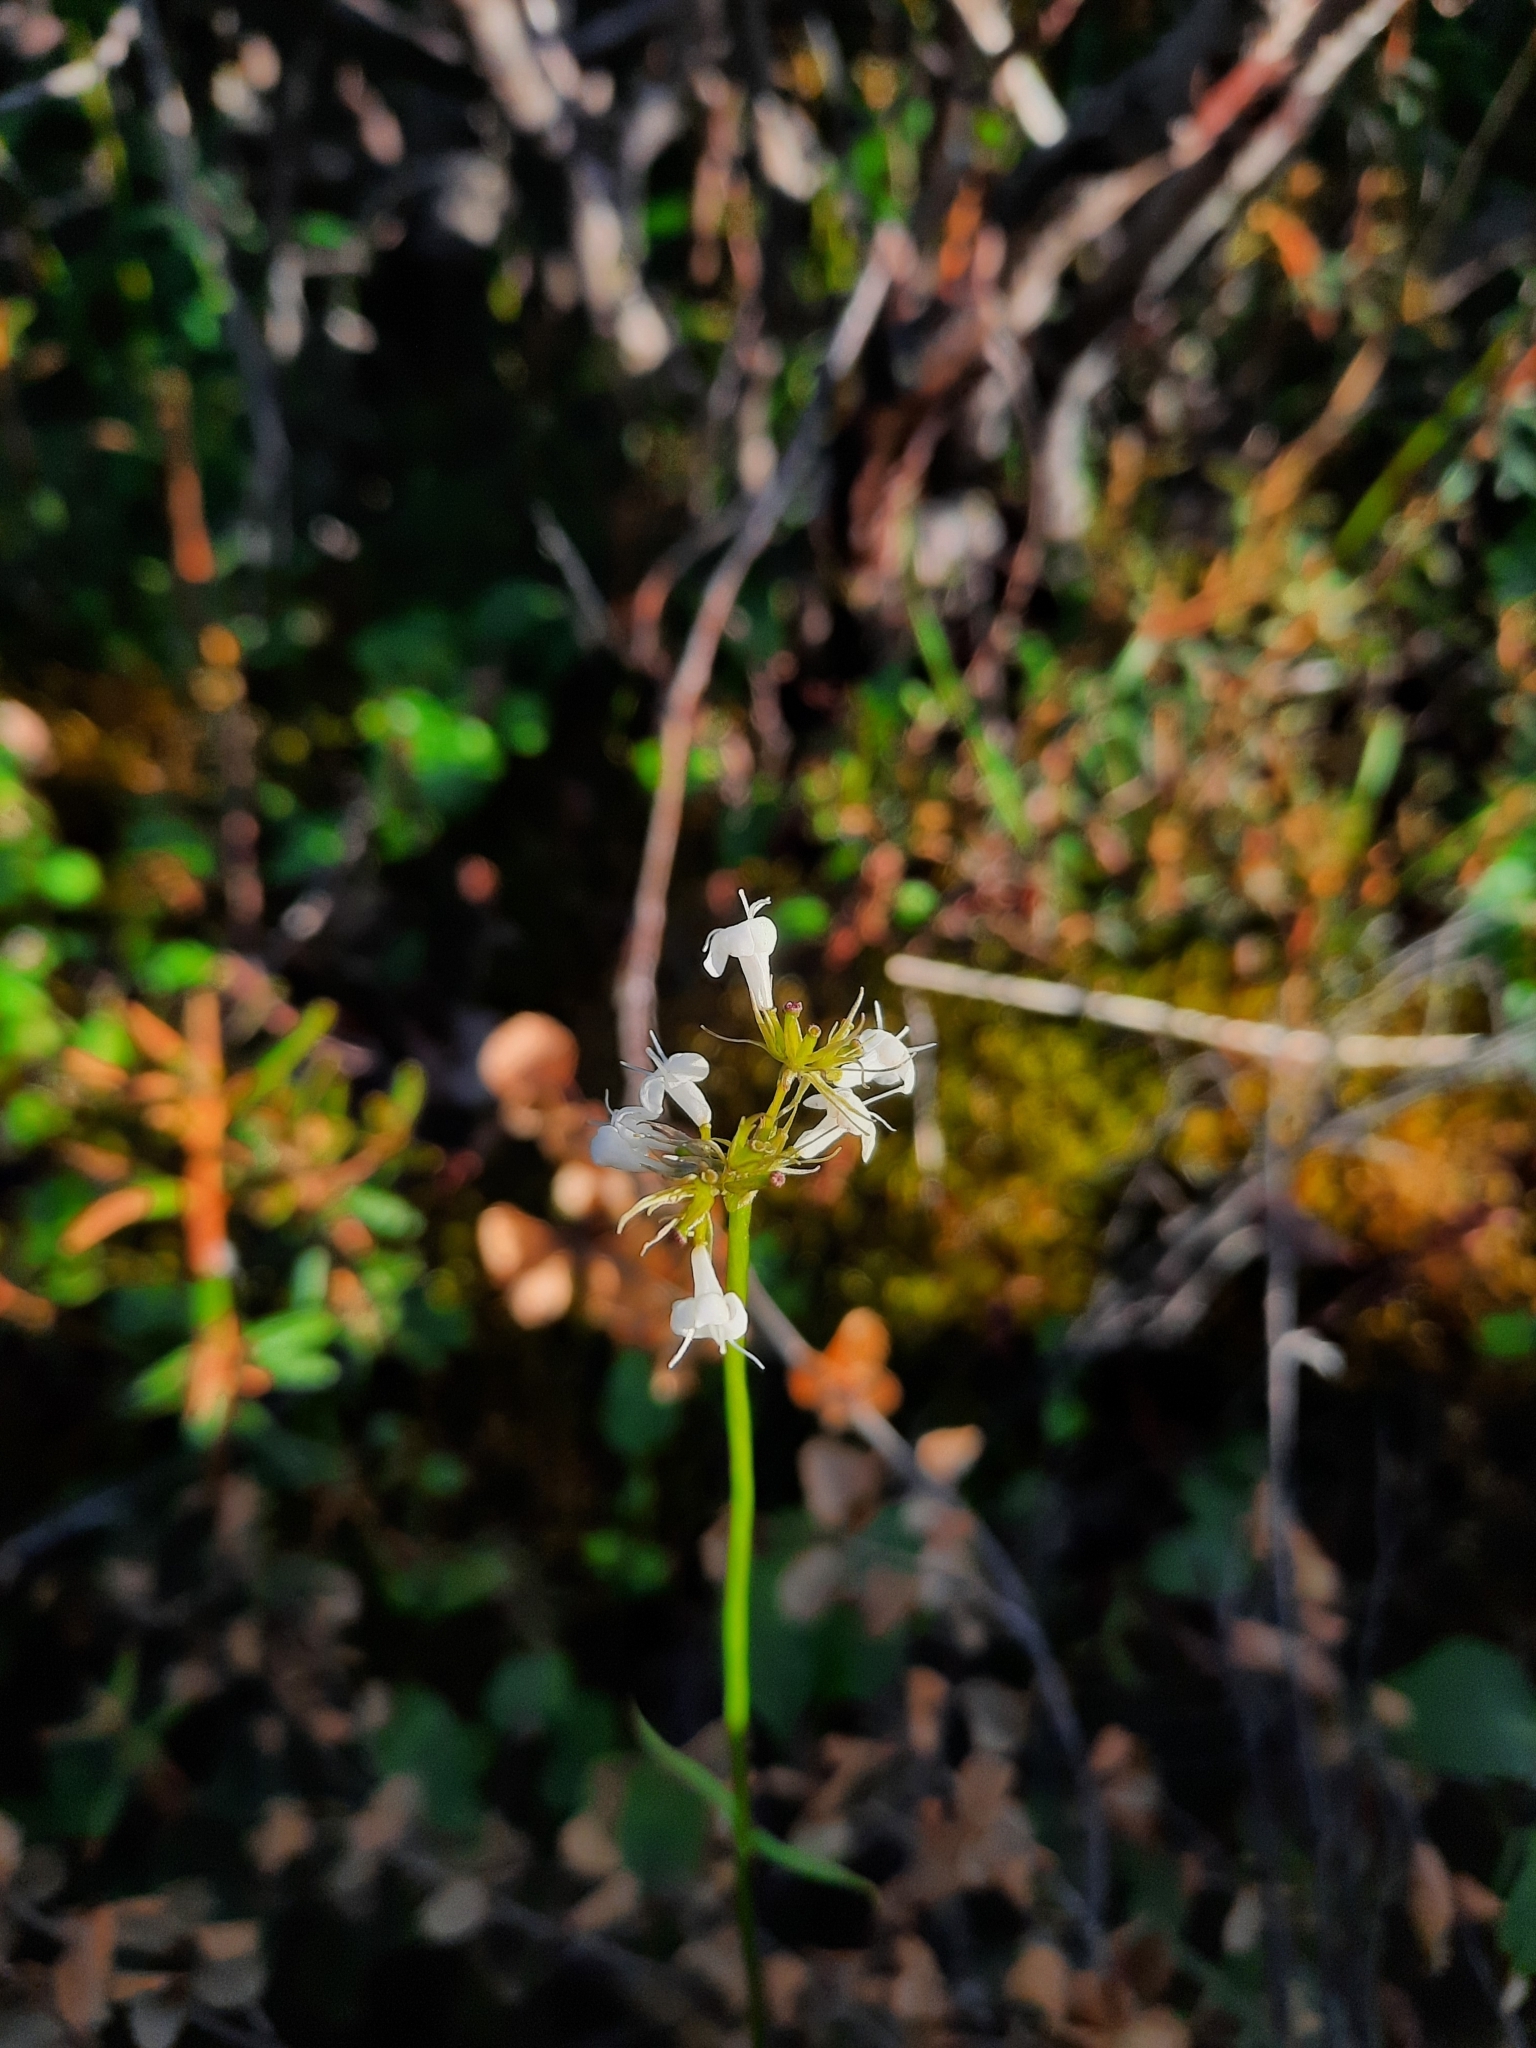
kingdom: Plantae
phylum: Tracheophyta
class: Magnoliopsida
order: Dipsacales
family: Caprifoliaceae
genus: Valeriana
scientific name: Valeriana capitata
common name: Capitate valerian
